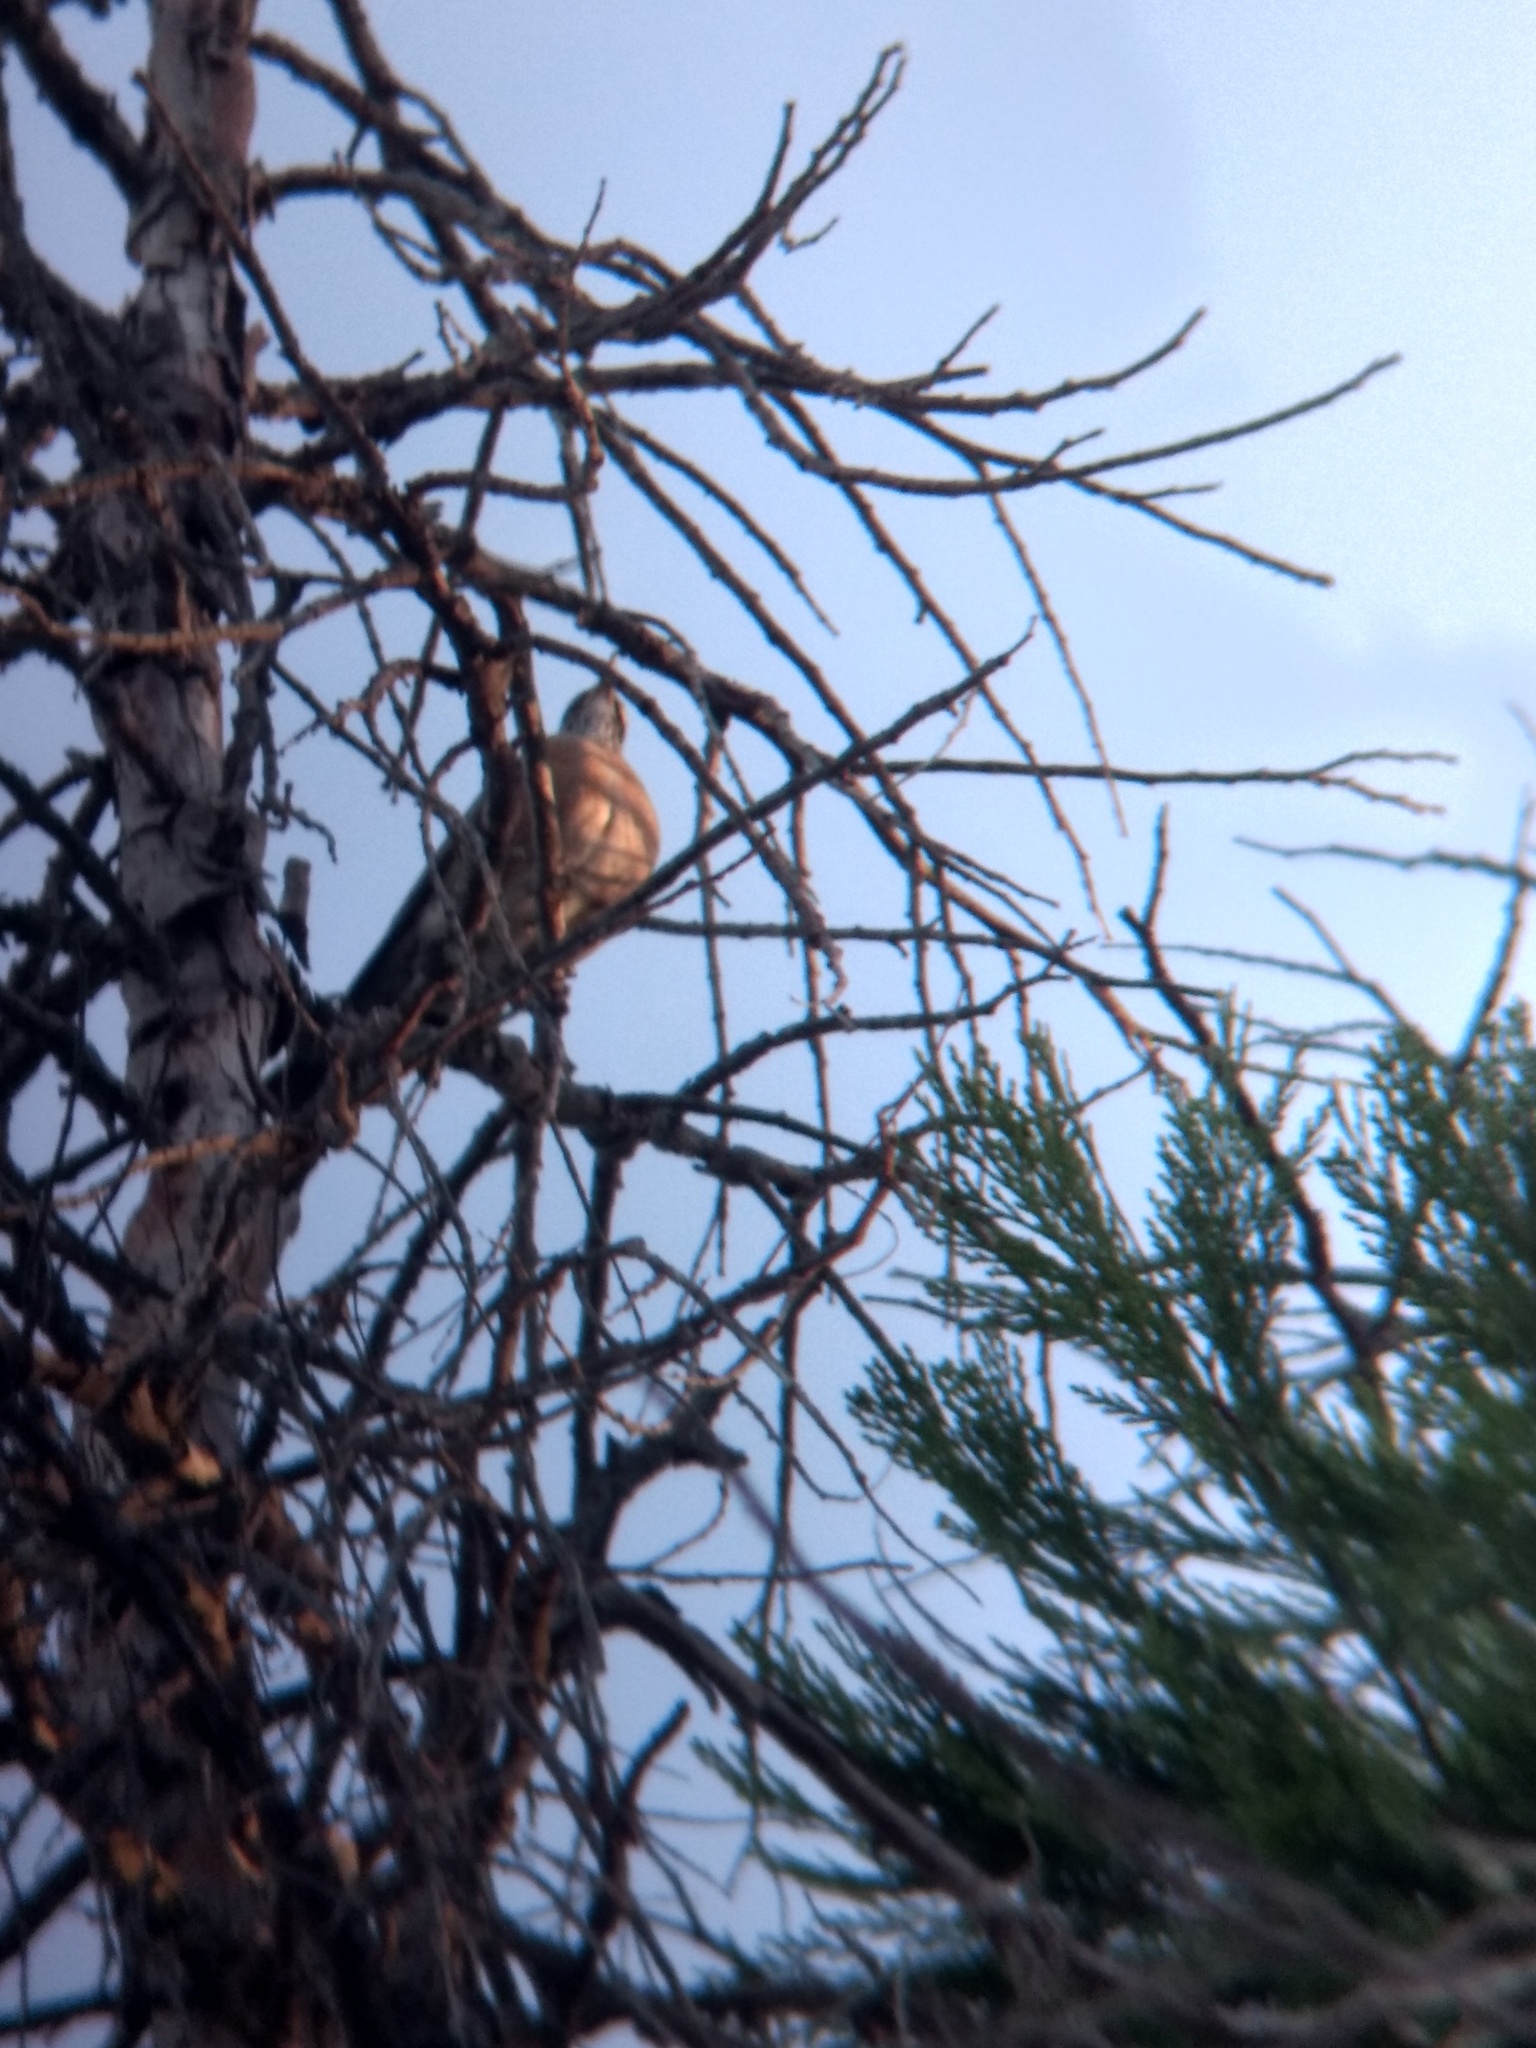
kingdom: Animalia
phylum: Chordata
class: Aves
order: Passeriformes
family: Turdidae
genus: Turdus
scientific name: Turdus migratorius
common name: American robin
